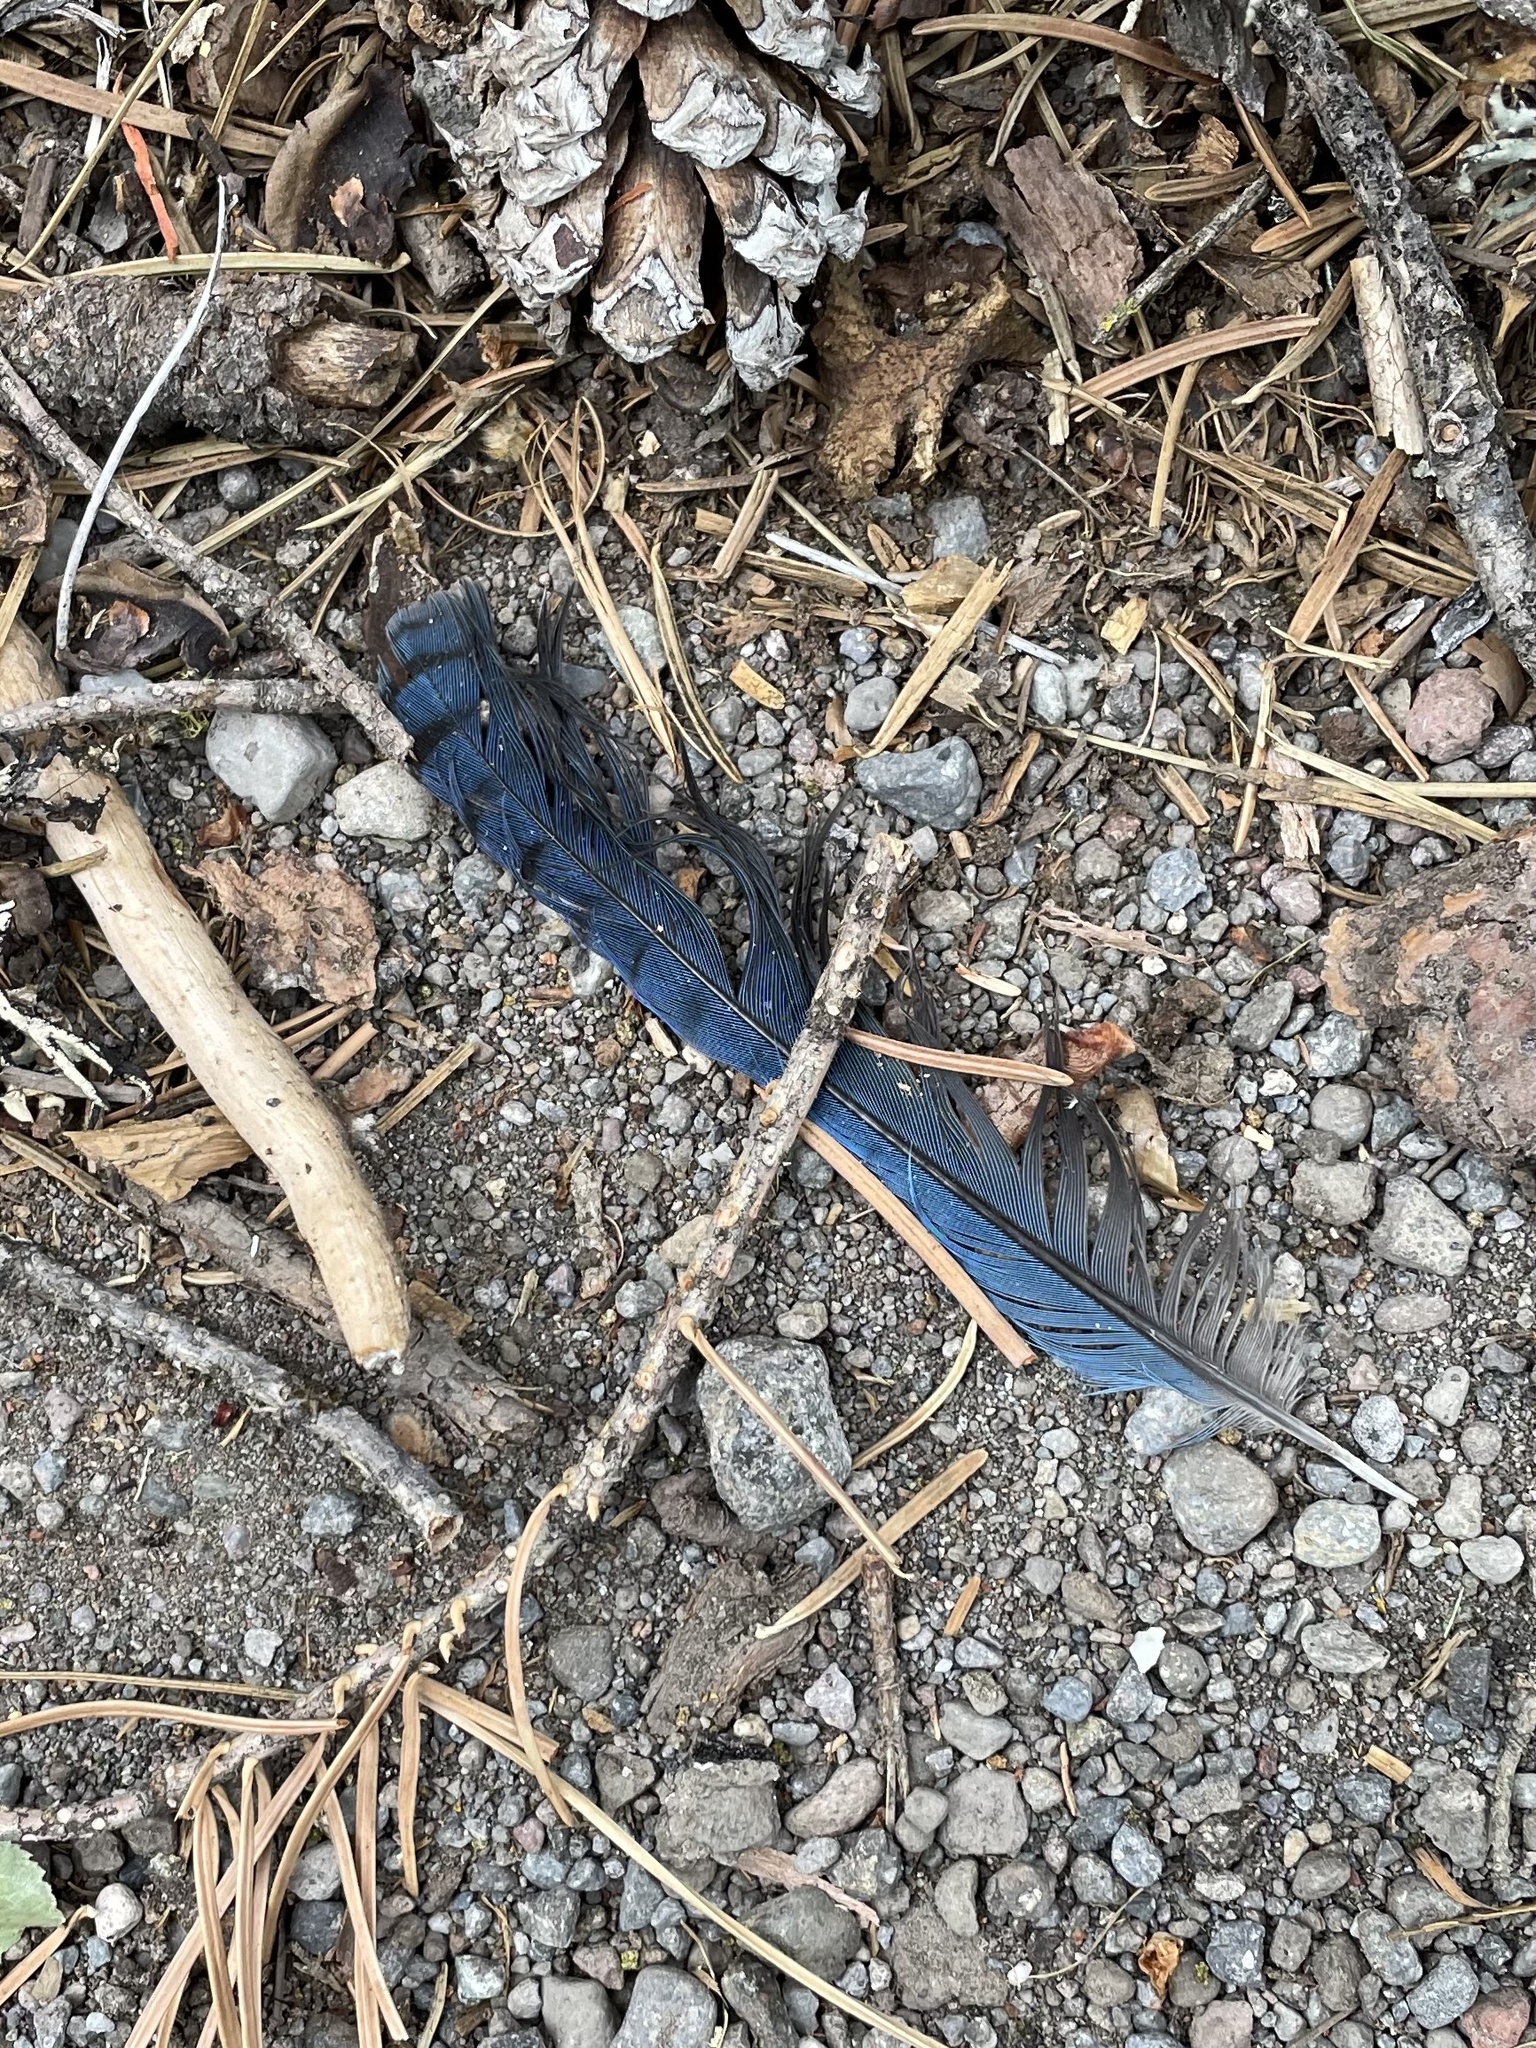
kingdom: Animalia
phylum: Chordata
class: Aves
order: Passeriformes
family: Corvidae
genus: Cyanocitta
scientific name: Cyanocitta stelleri
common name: Steller's jay
